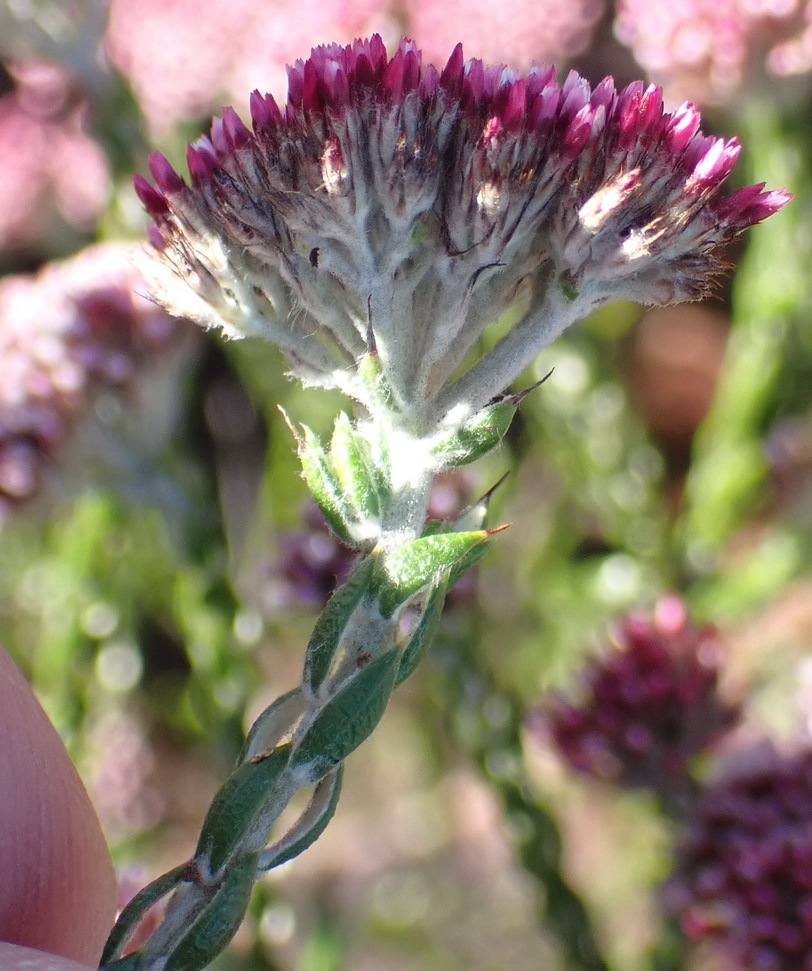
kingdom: Plantae
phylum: Tracheophyta
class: Magnoliopsida
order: Asterales
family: Asteraceae
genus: Metalasia
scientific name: Metalasia pulcherrima
